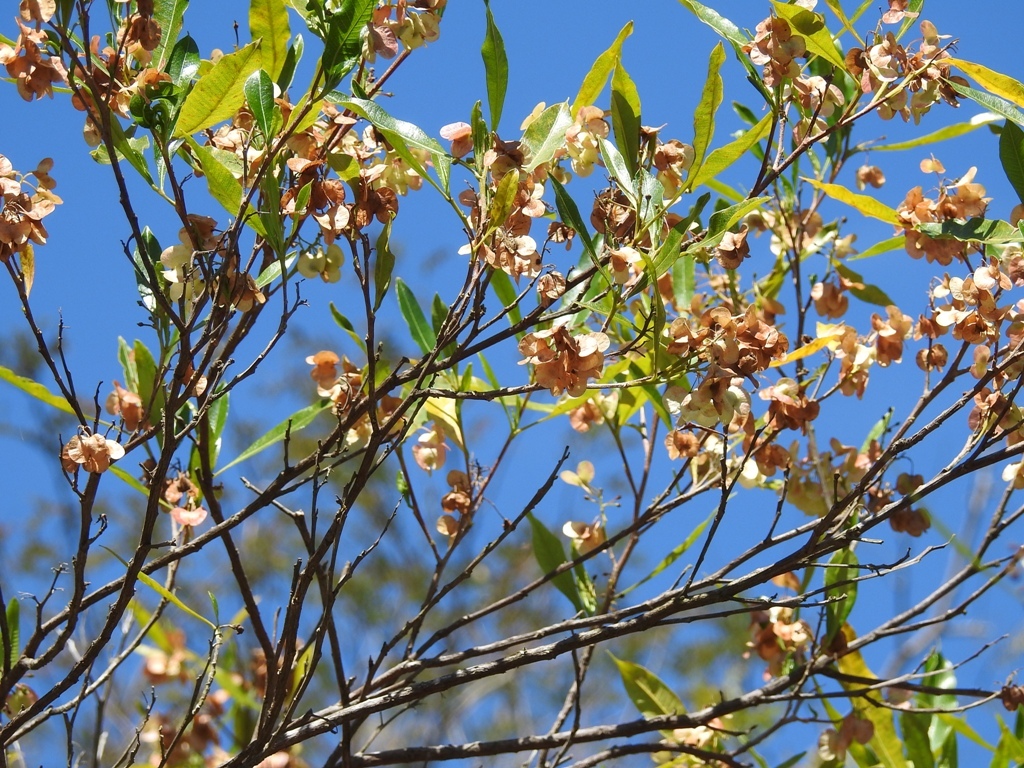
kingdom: Plantae
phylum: Tracheophyta
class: Magnoliopsida
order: Sapindales
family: Sapindaceae
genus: Dodonaea
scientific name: Dodonaea viscosa
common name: Hopbush
